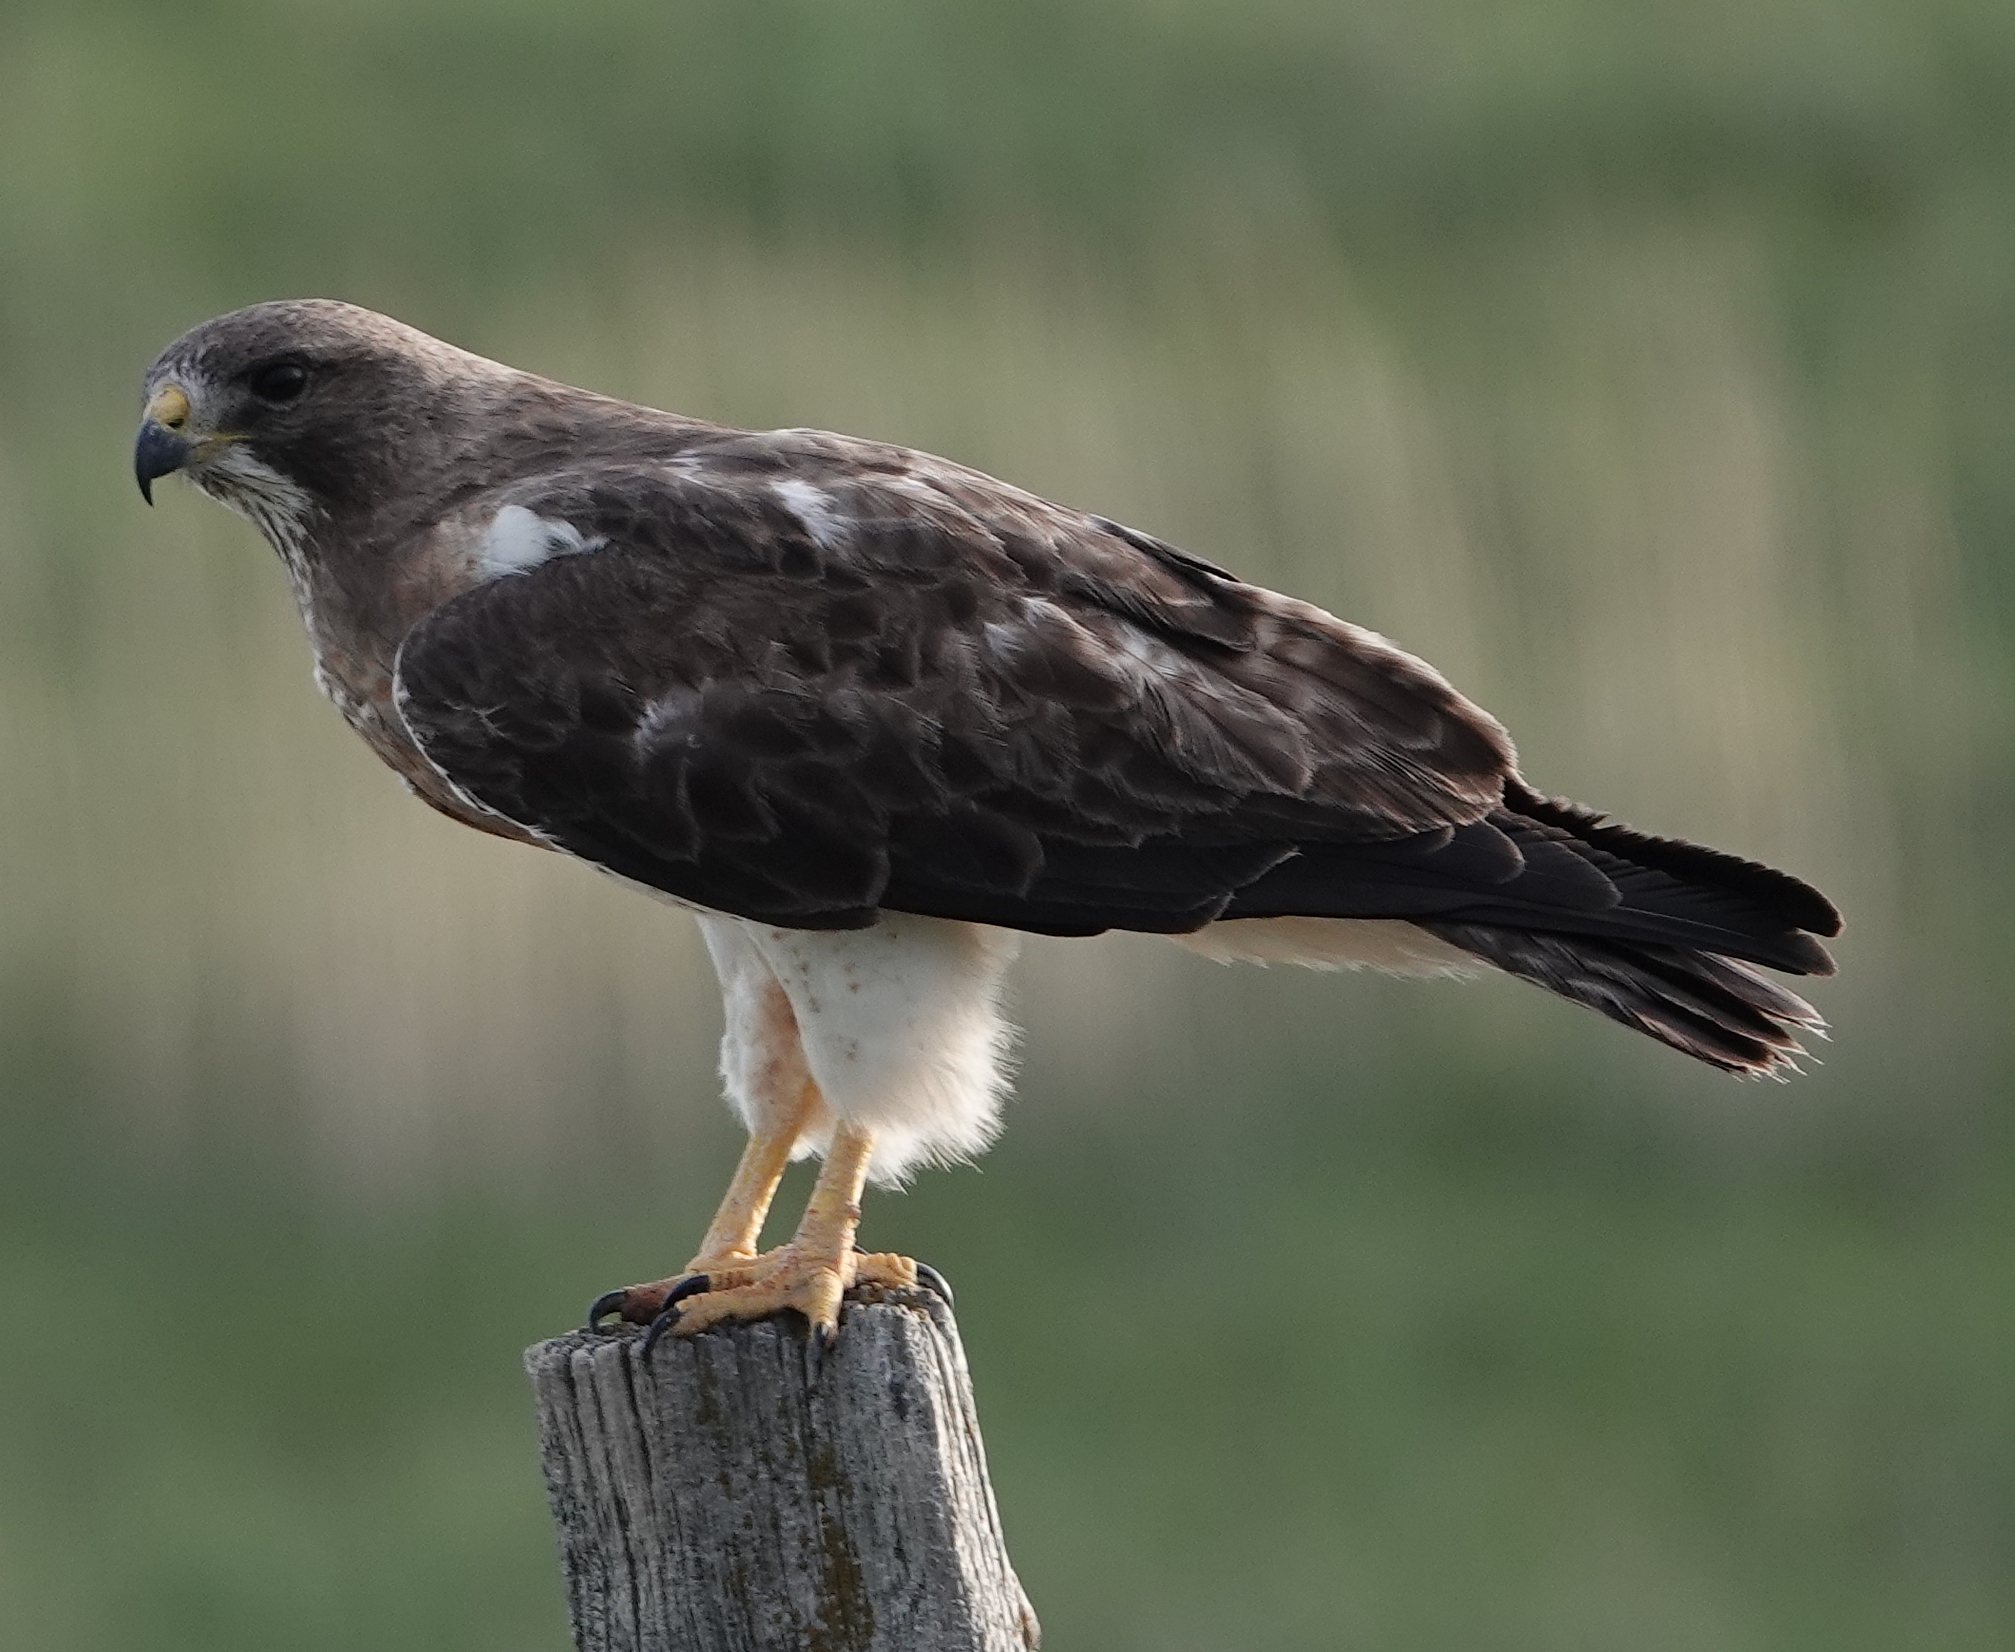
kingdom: Animalia
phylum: Chordata
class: Aves
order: Accipitriformes
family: Accipitridae
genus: Buteo
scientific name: Buteo swainsoni
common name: Swainson's hawk
